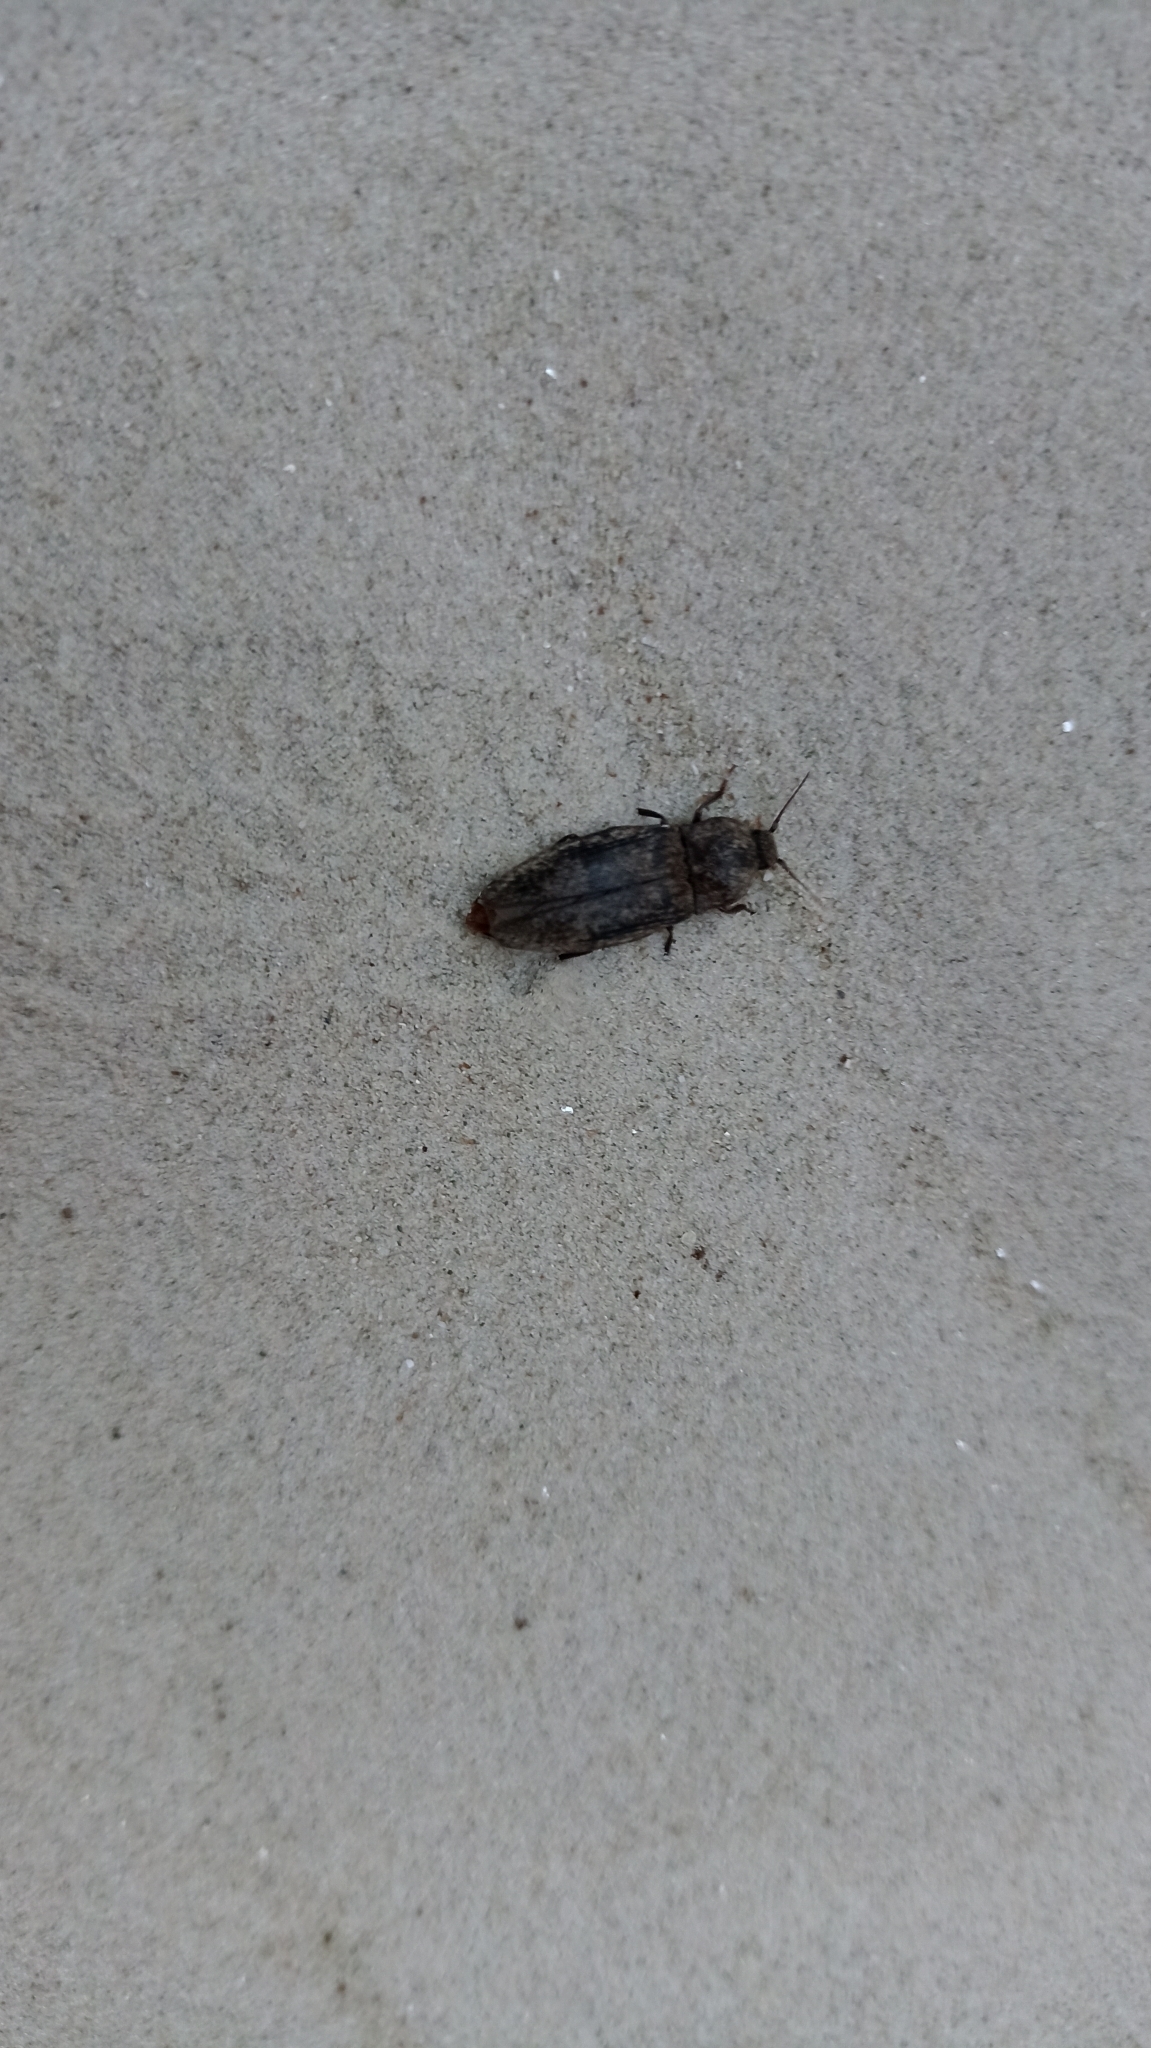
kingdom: Animalia
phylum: Arthropoda
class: Insecta
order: Coleoptera
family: Elateridae
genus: Agrypnus
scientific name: Agrypnus murinus
